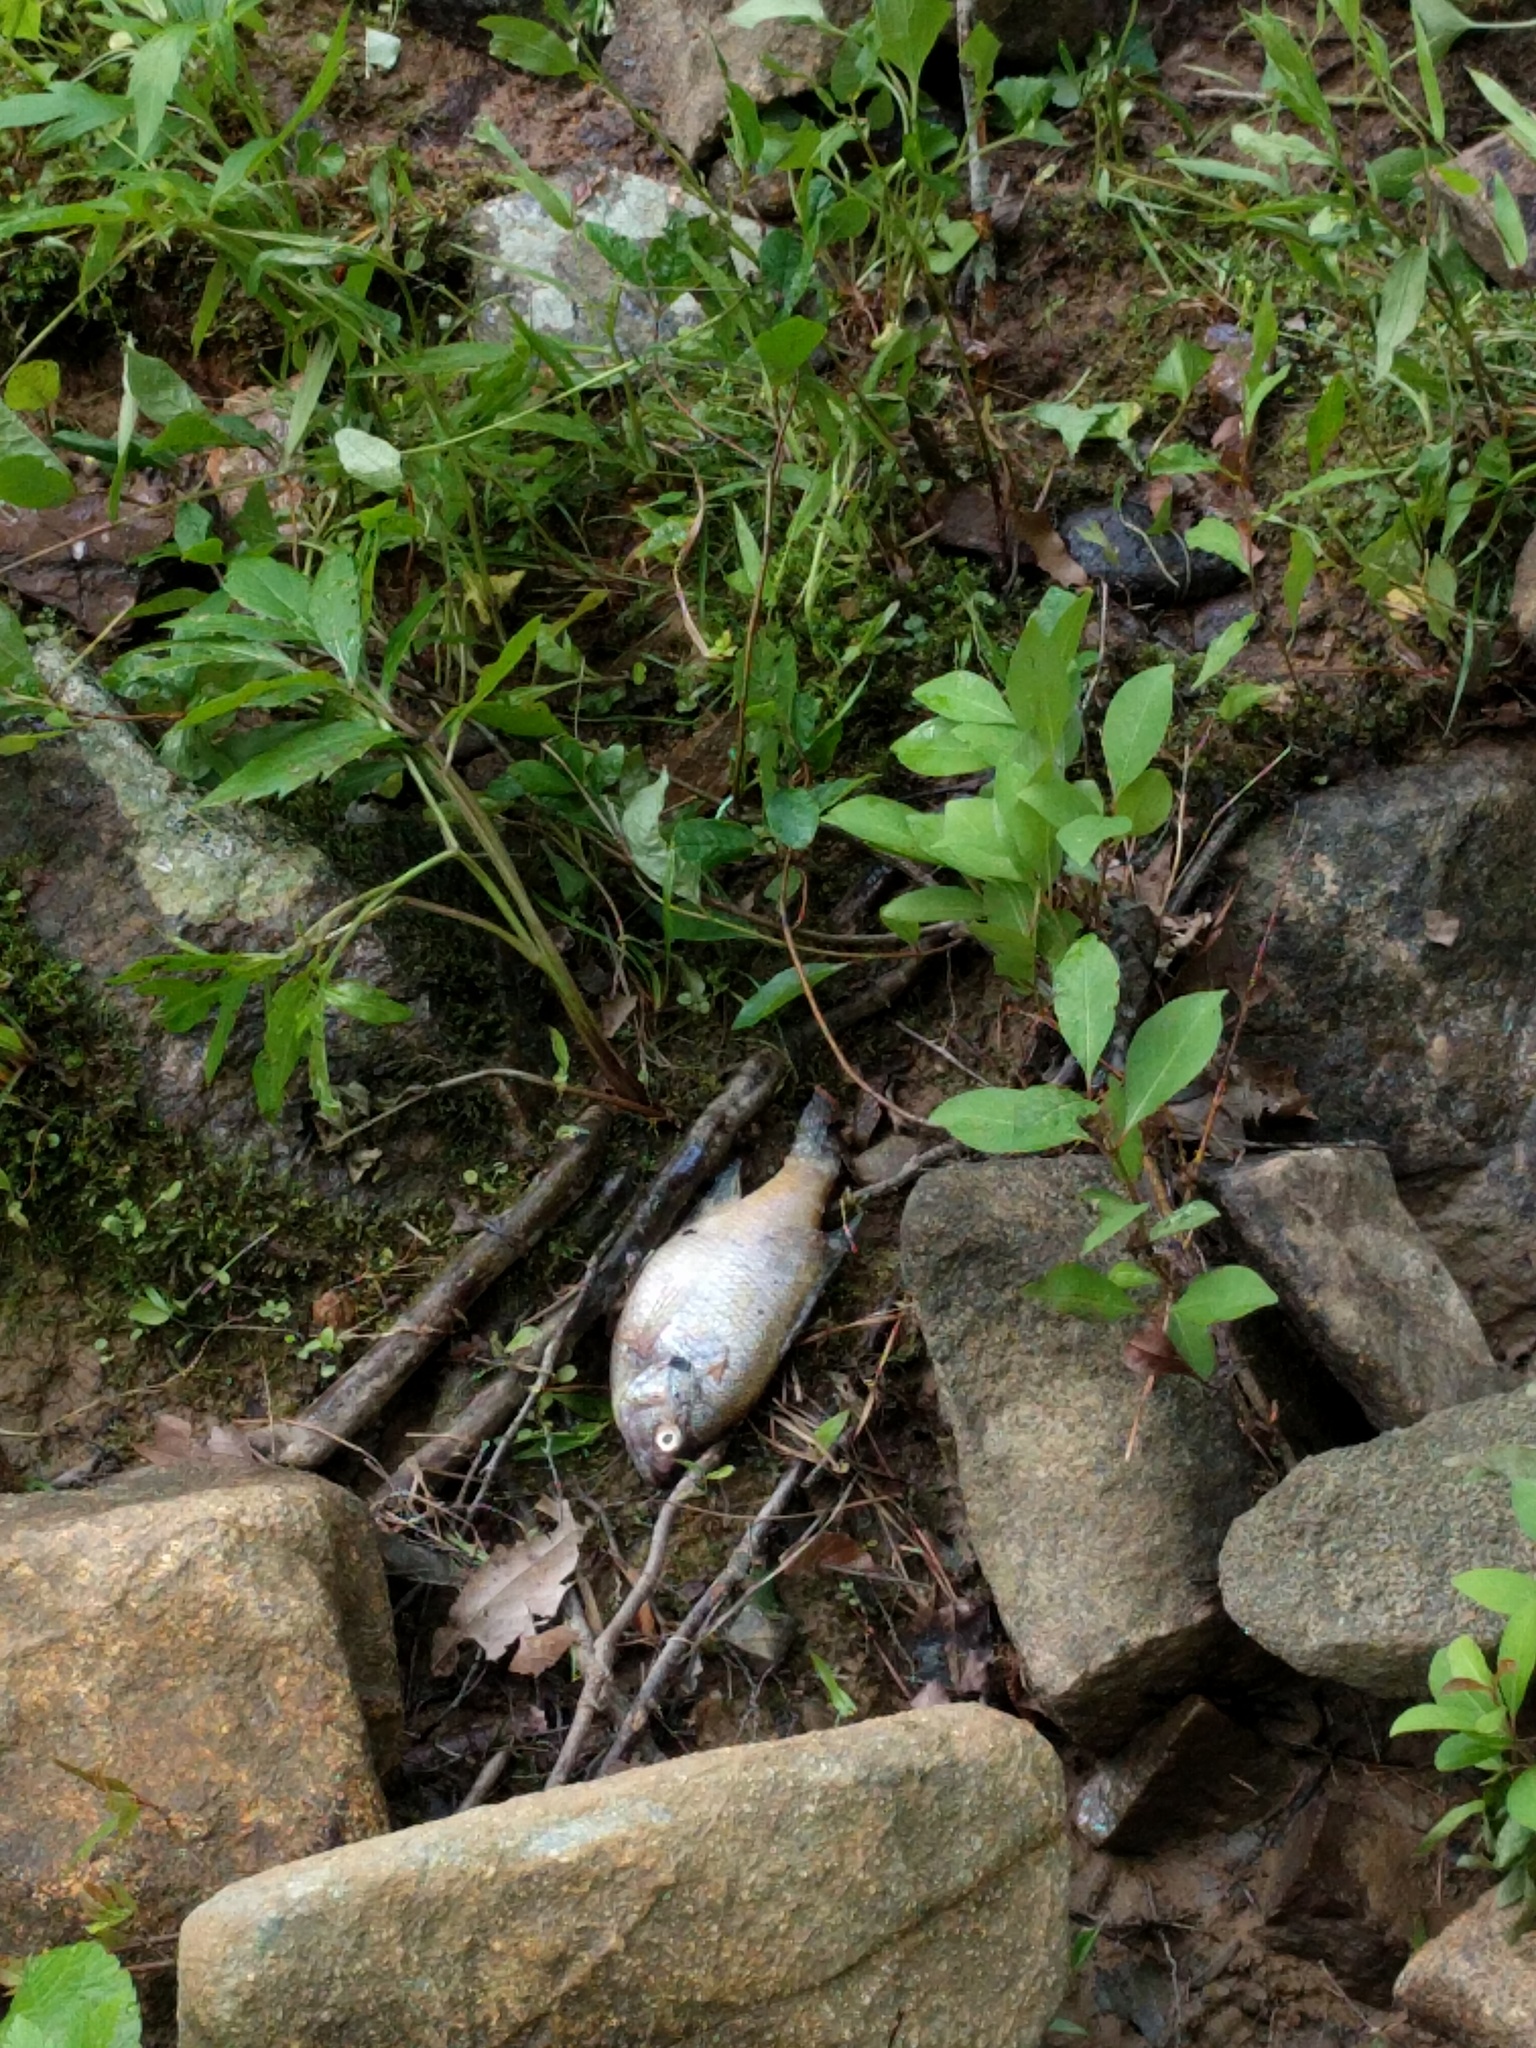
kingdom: Animalia
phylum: Chordata
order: Perciformes
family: Centrarchidae
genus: Lepomis
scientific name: Lepomis macrochirus
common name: Bluegill
